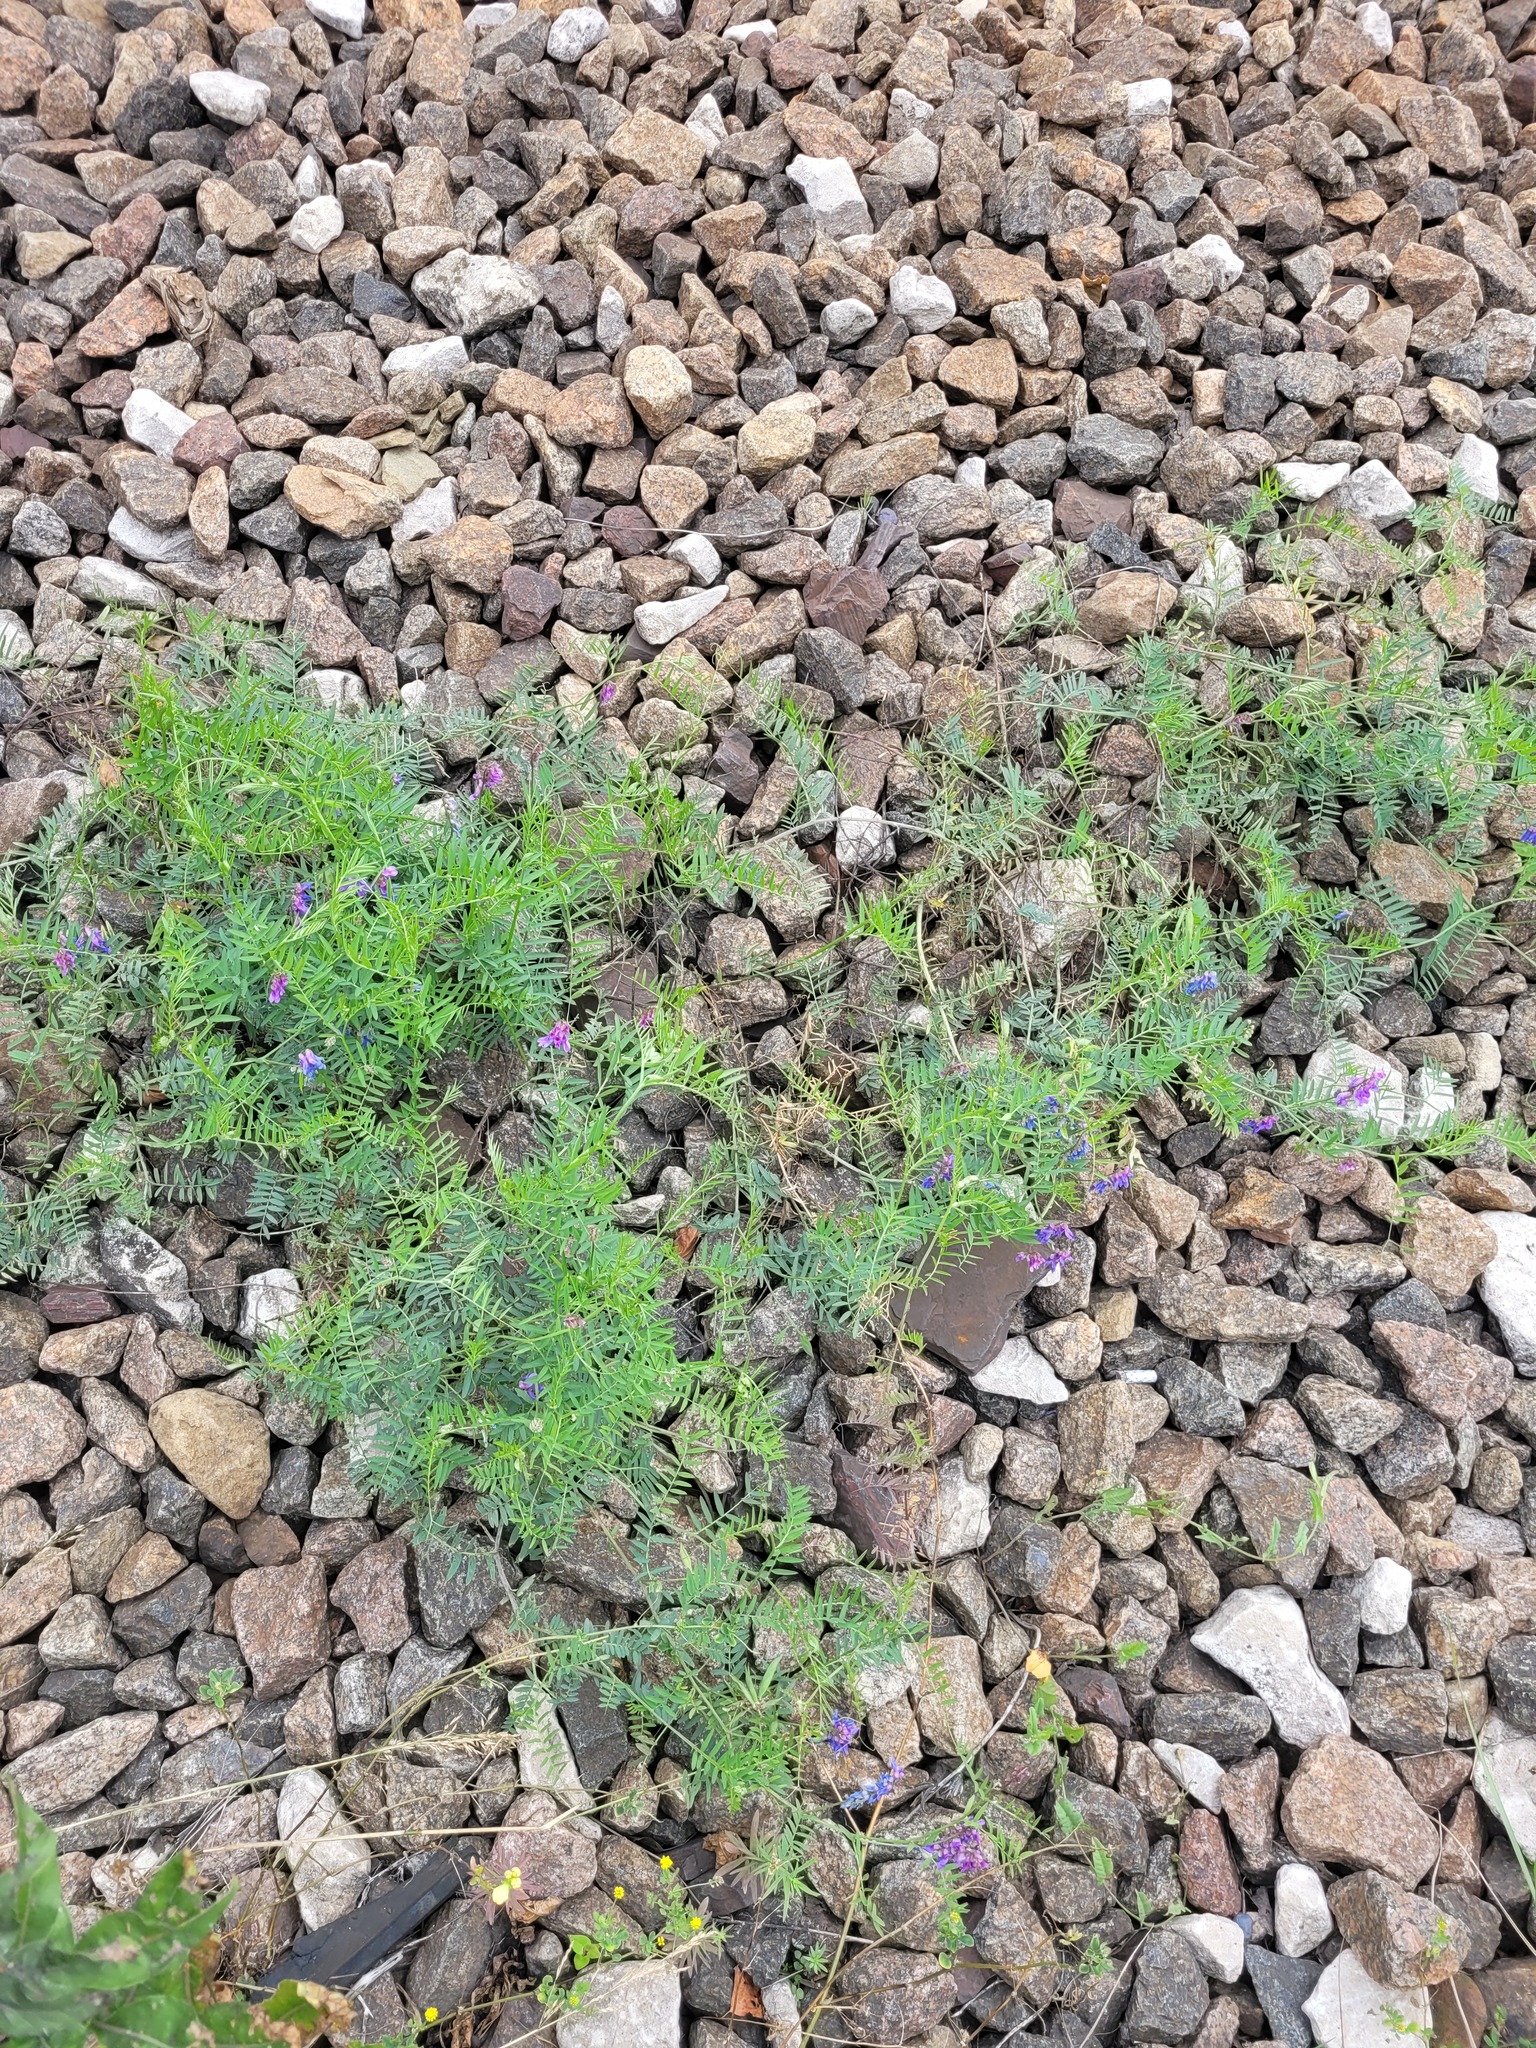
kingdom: Plantae
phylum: Tracheophyta
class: Magnoliopsida
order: Fabales
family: Fabaceae
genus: Vicia
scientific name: Vicia cracca
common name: Bird vetch
